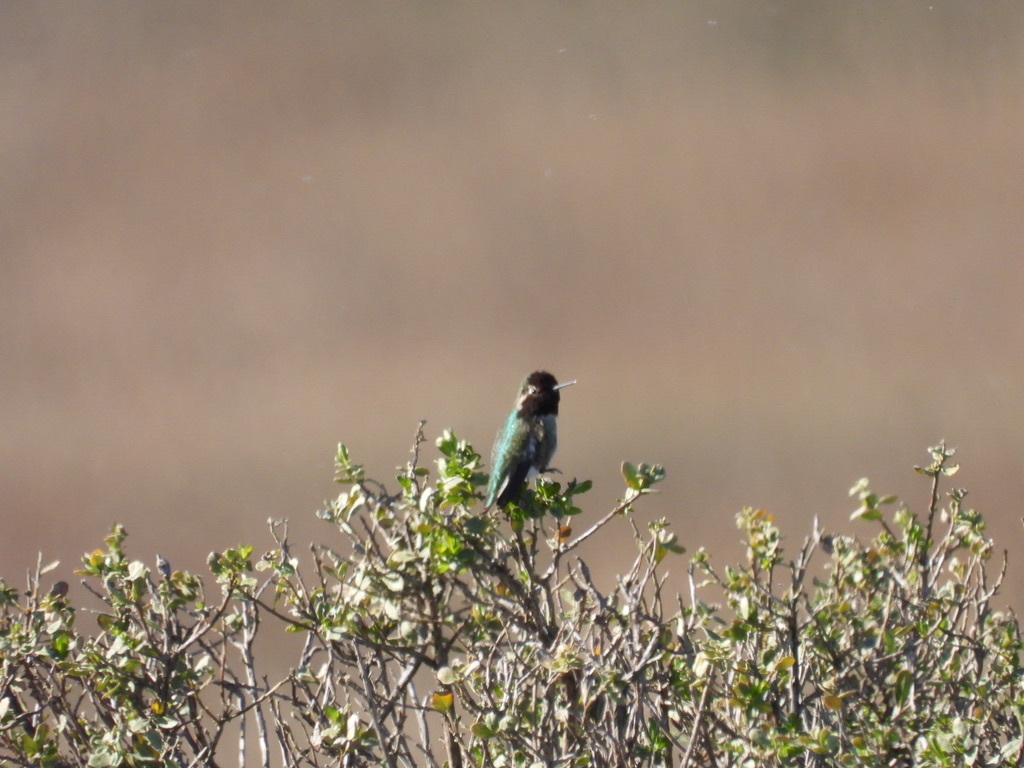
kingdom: Animalia
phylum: Chordata
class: Aves
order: Apodiformes
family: Trochilidae
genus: Calypte
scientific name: Calypte anna
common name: Anna's hummingbird
